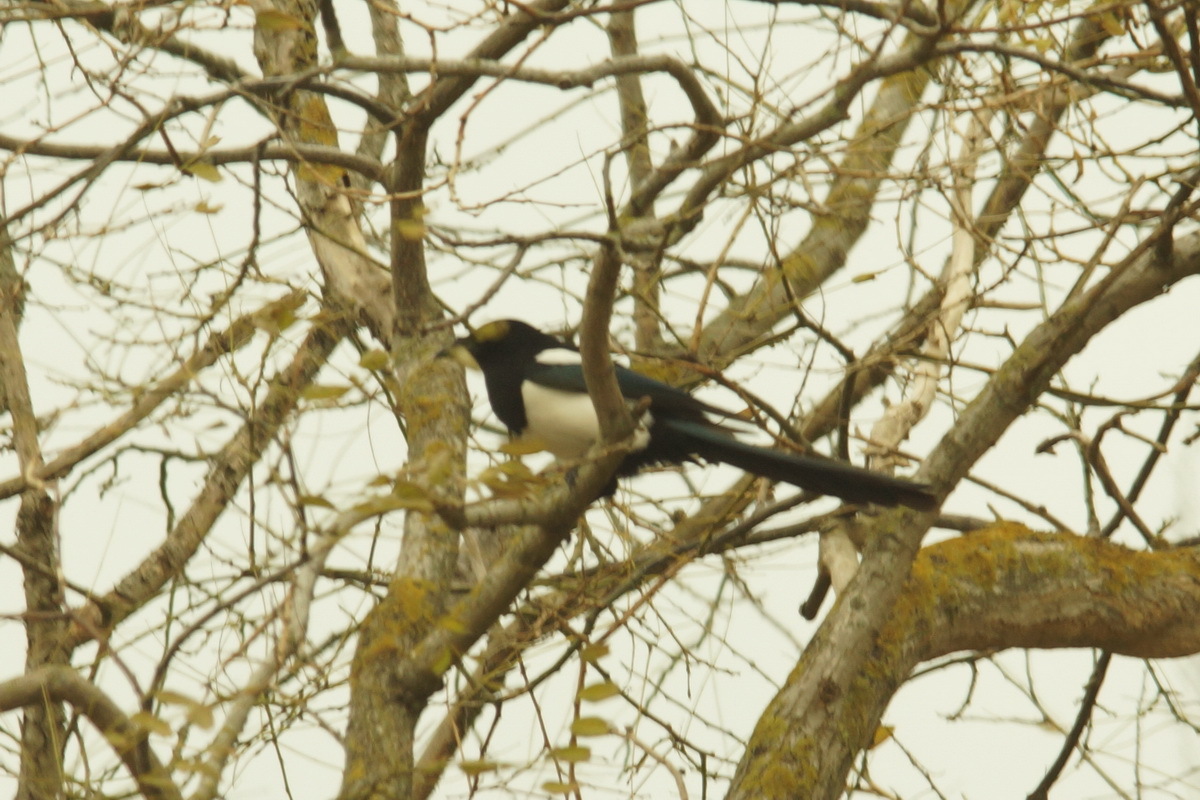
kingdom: Animalia
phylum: Chordata
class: Aves
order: Passeriformes
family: Corvidae
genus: Pica
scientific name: Pica pica
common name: Eurasian magpie
